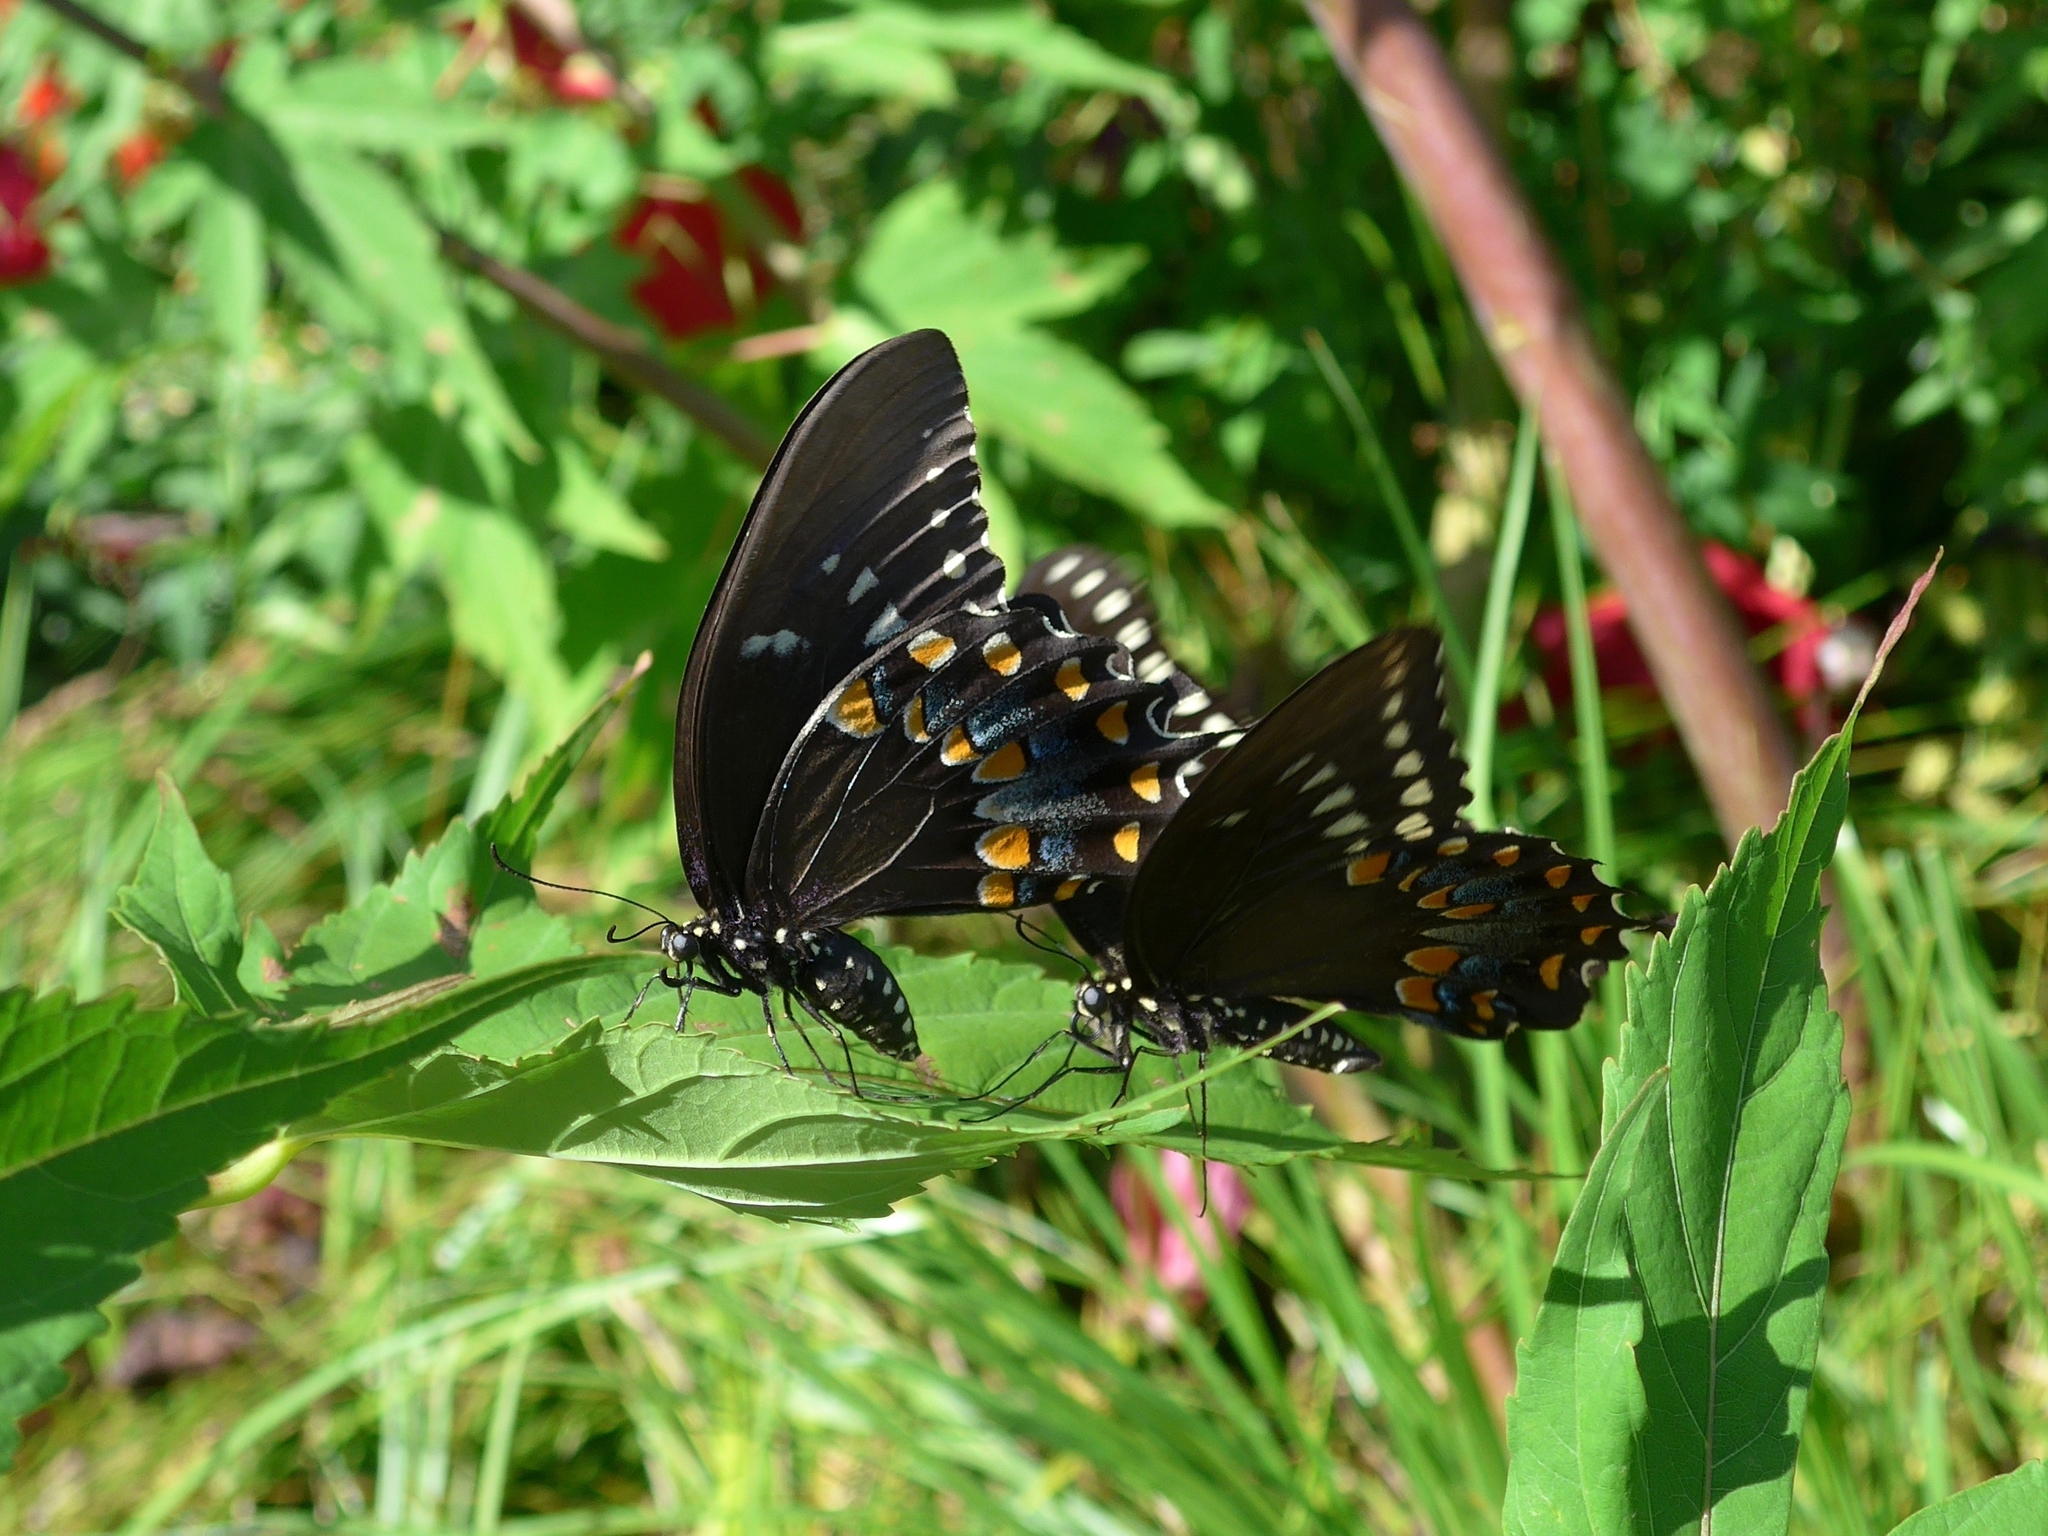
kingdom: Animalia
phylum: Arthropoda
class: Insecta
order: Lepidoptera
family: Papilionidae
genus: Papilio
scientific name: Papilio troilus
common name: Spicebush swallowtail
